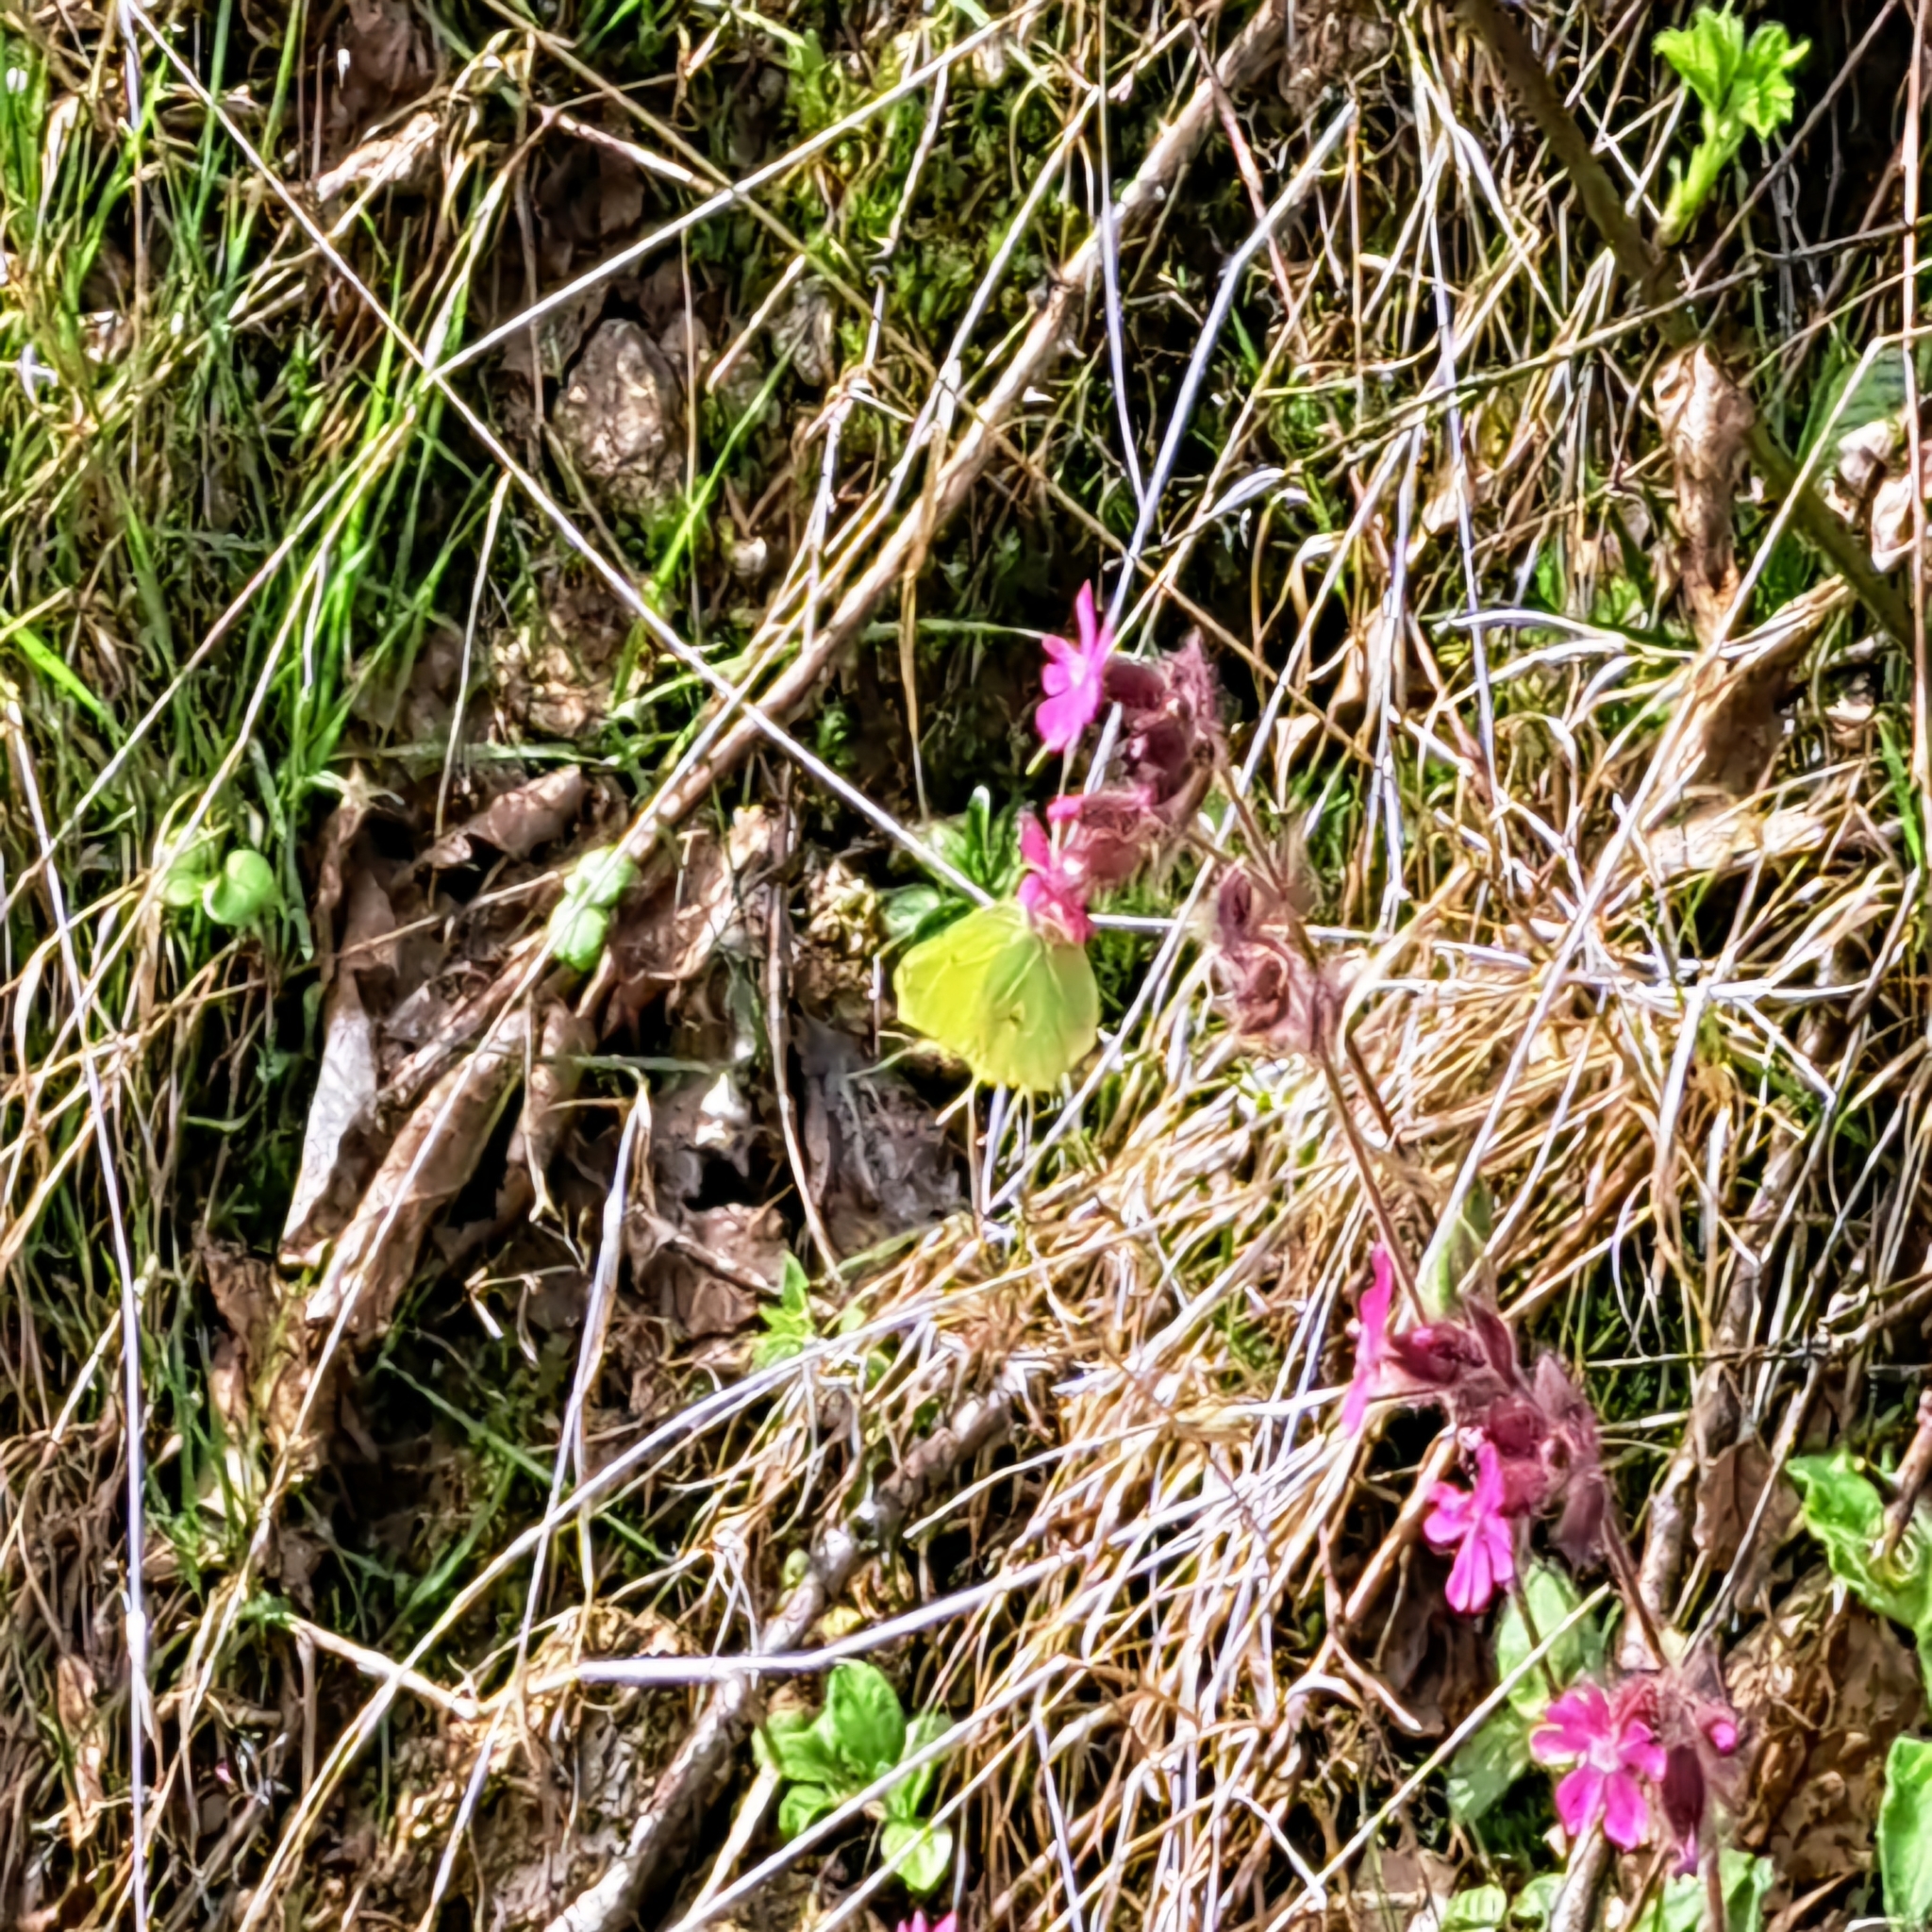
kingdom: Animalia
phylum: Arthropoda
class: Insecta
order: Lepidoptera
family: Pieridae
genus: Gonepteryx
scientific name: Gonepteryx rhamni
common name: Brimstone
